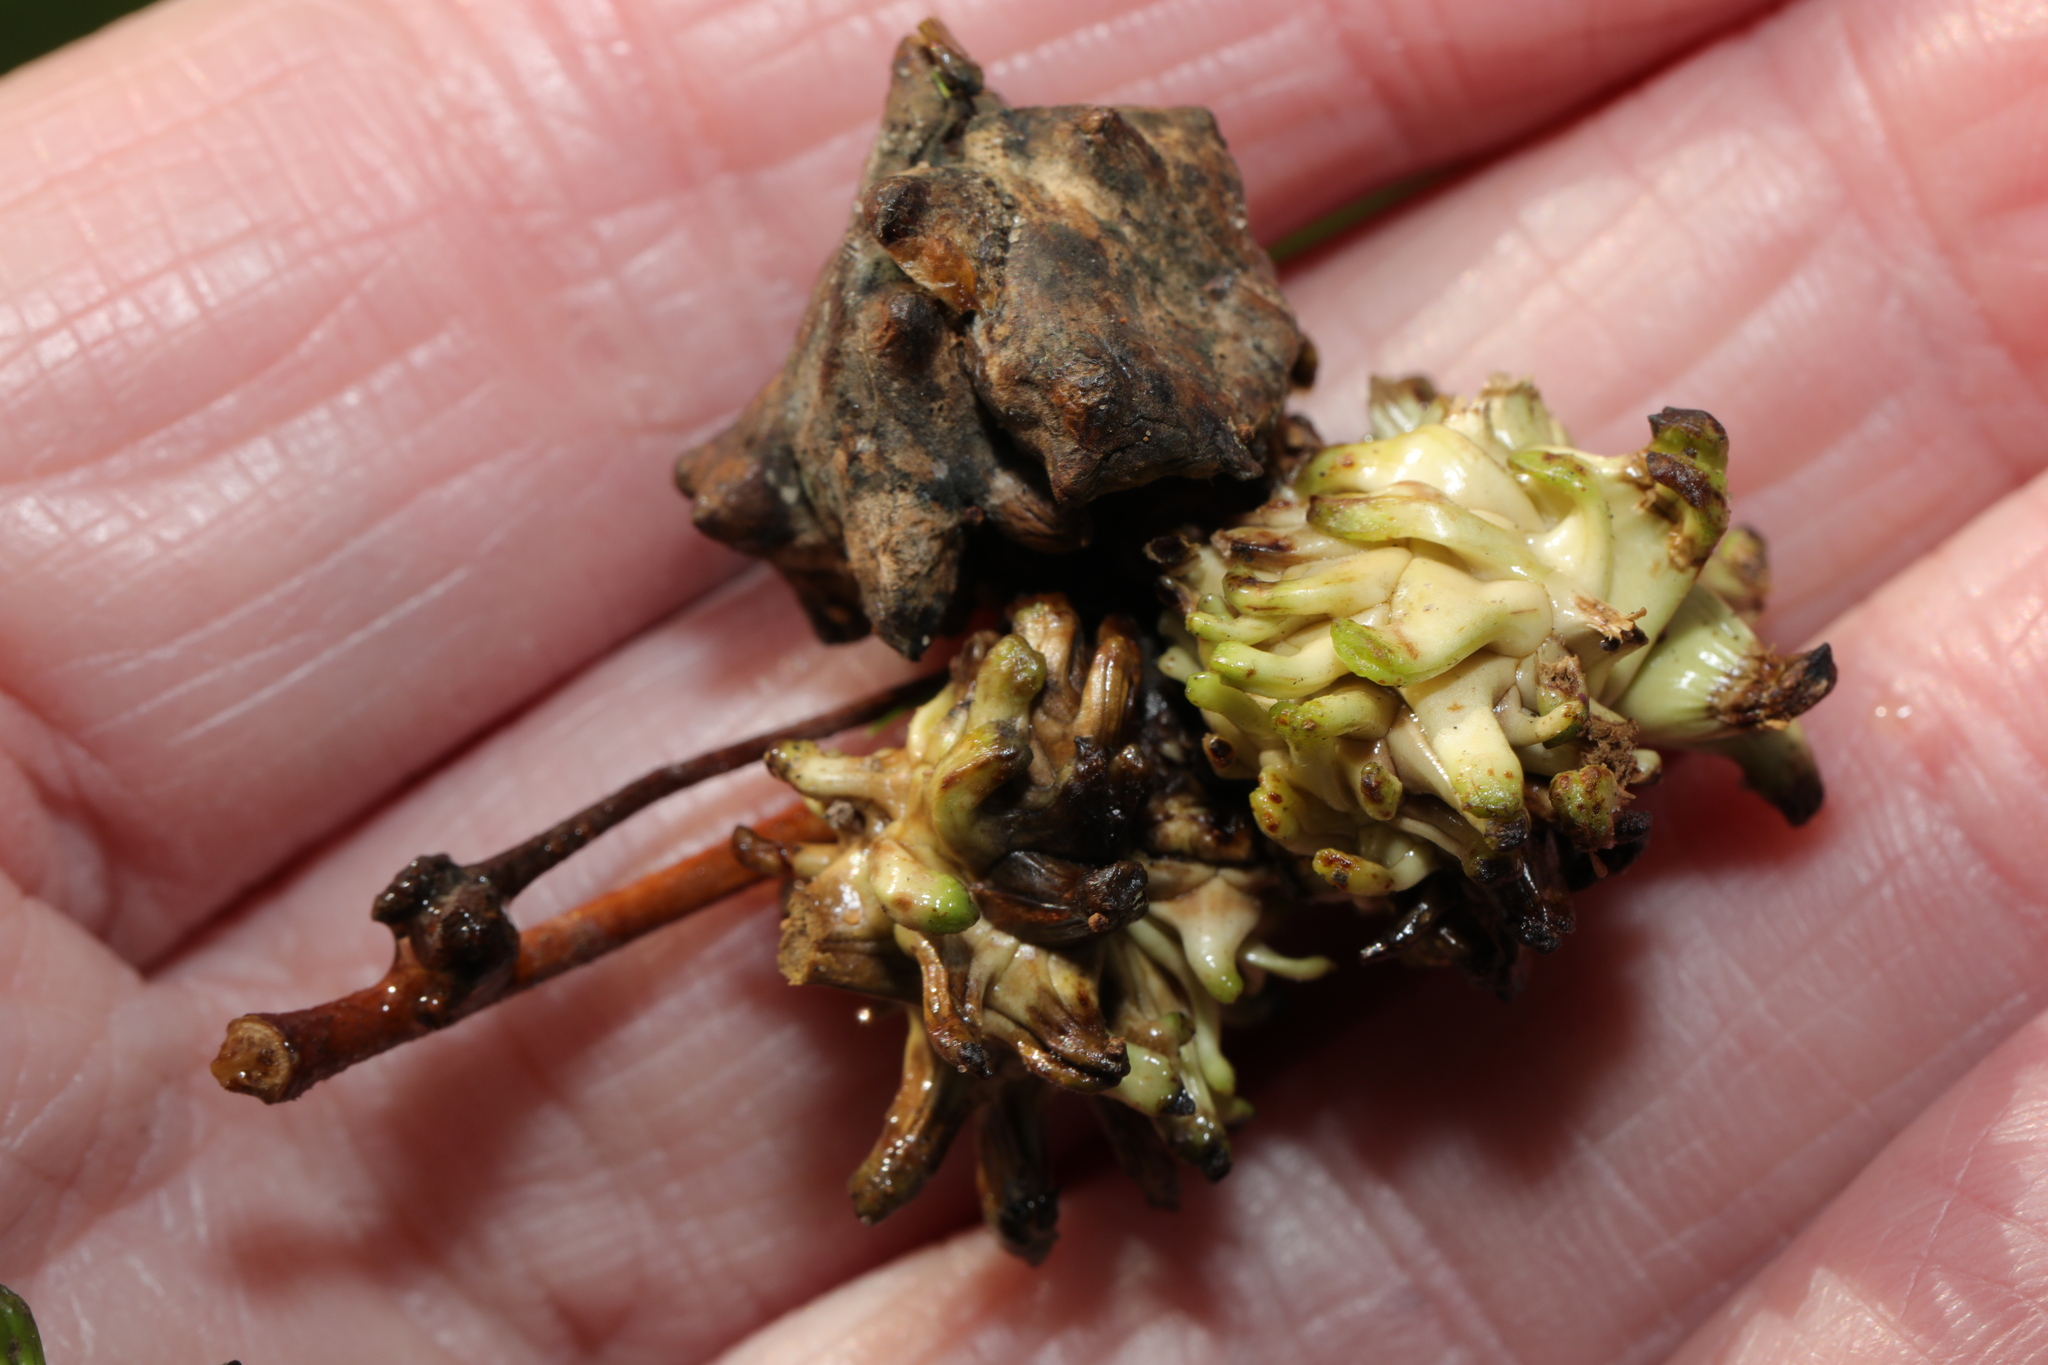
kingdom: Animalia
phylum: Arthropoda
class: Insecta
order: Hymenoptera
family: Cynipidae
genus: Andricus
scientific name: Andricus grossulariae
